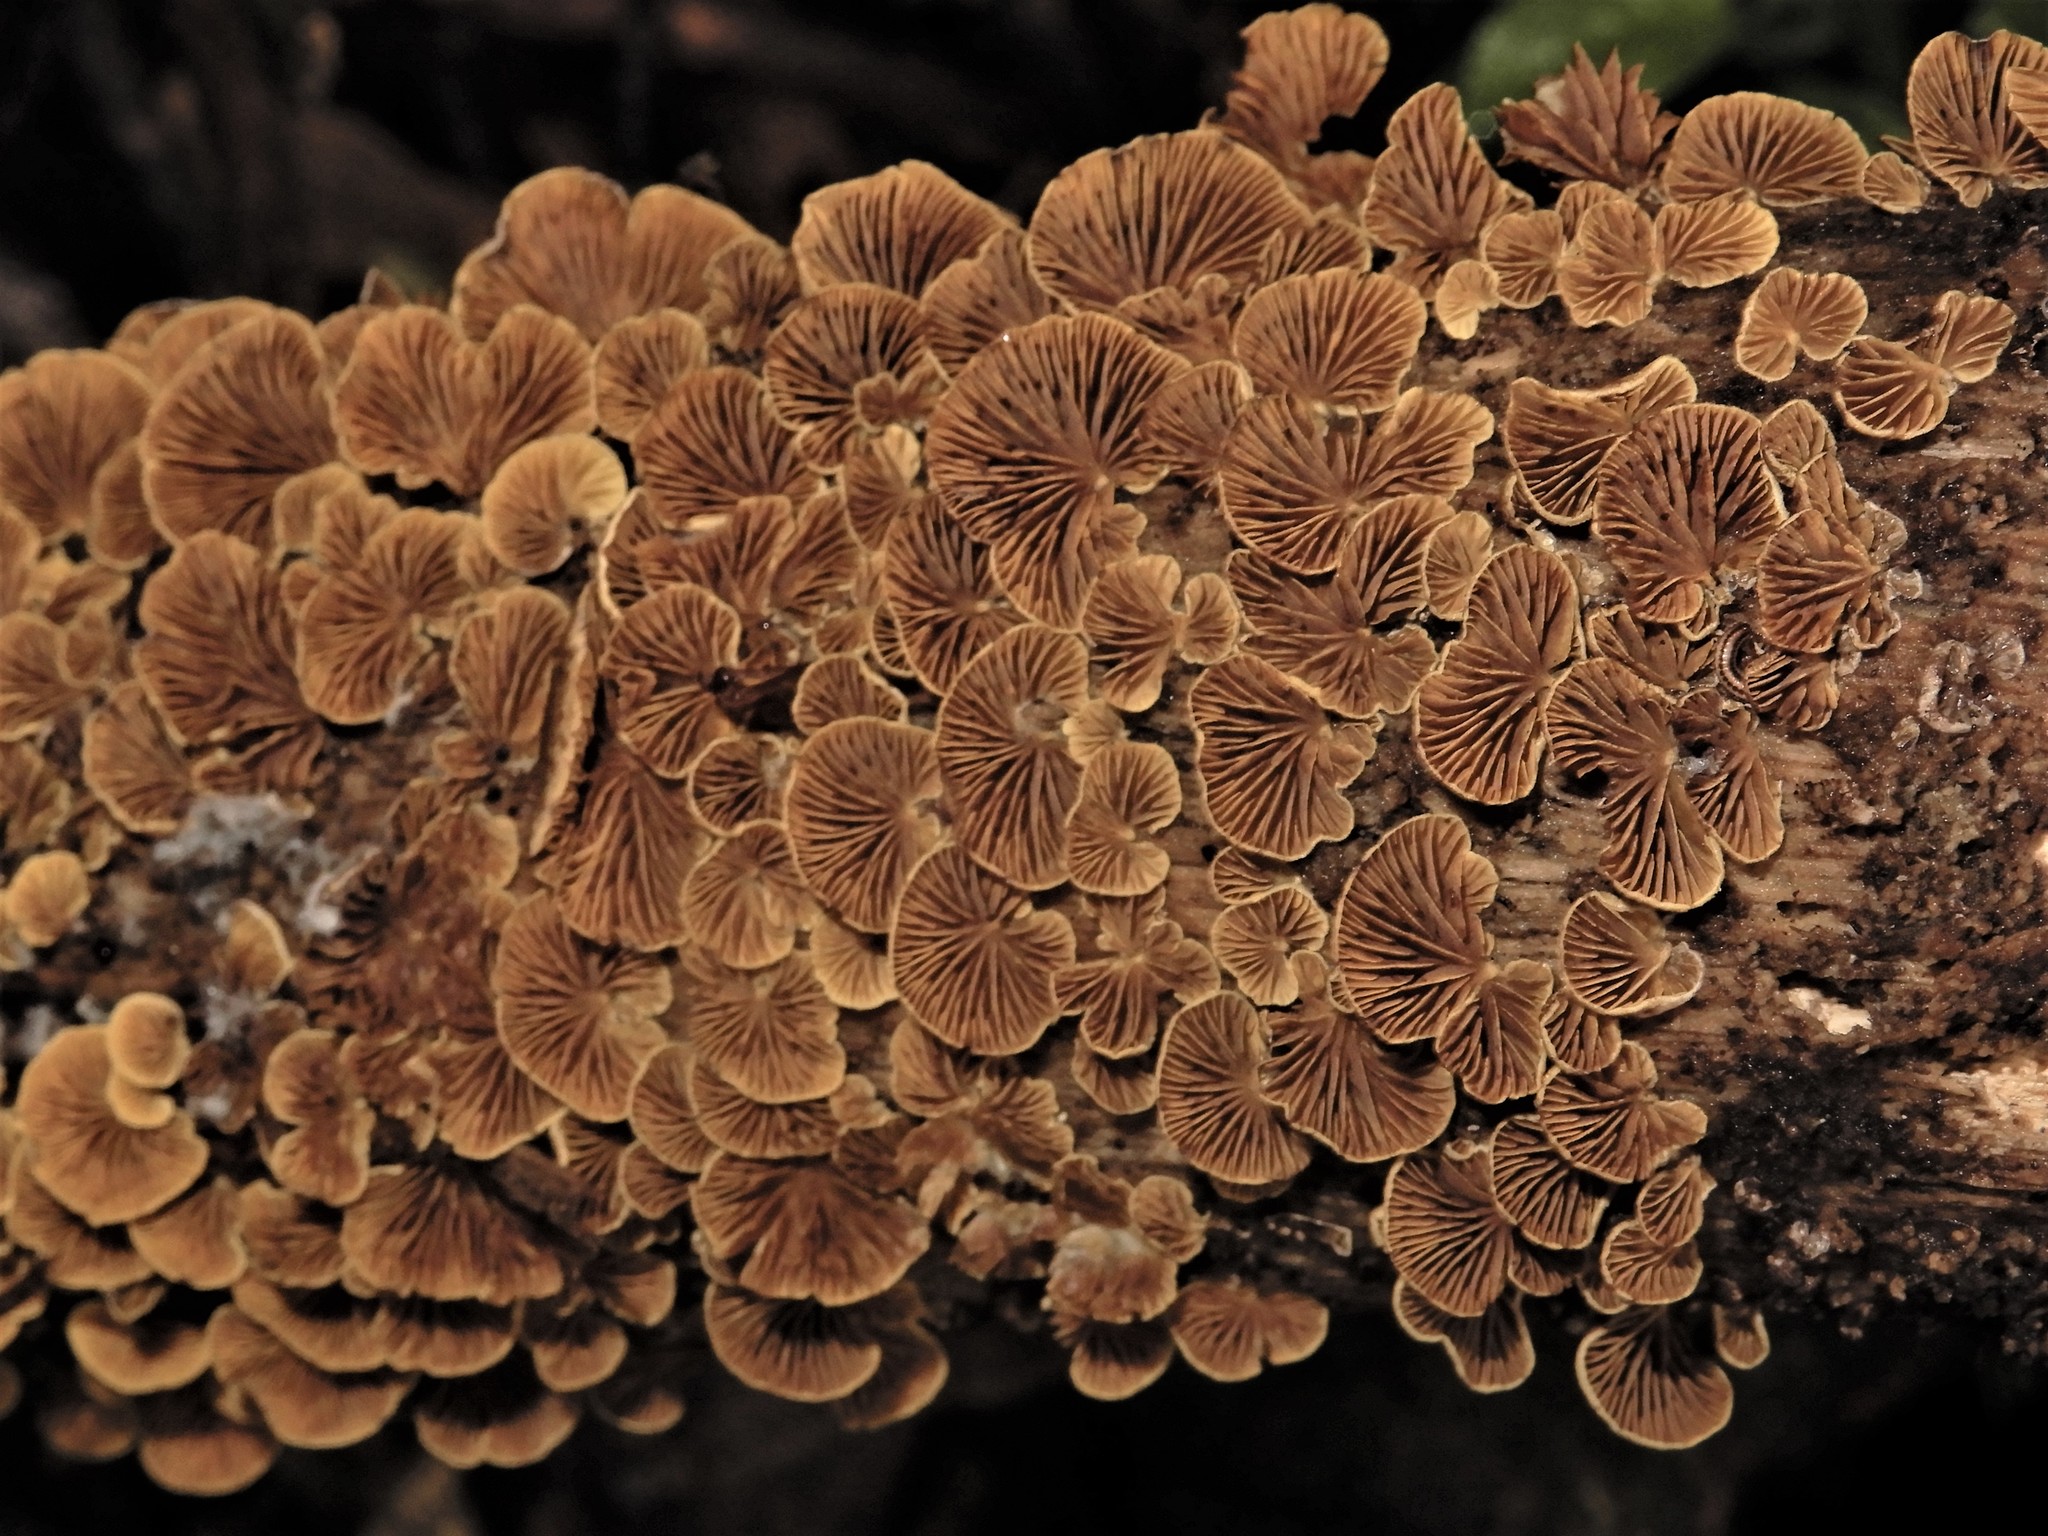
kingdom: Fungi
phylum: Basidiomycota
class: Agaricomycetes
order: Agaricales
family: Crepidotaceae
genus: Crepidotus
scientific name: Crepidotus parietalis
